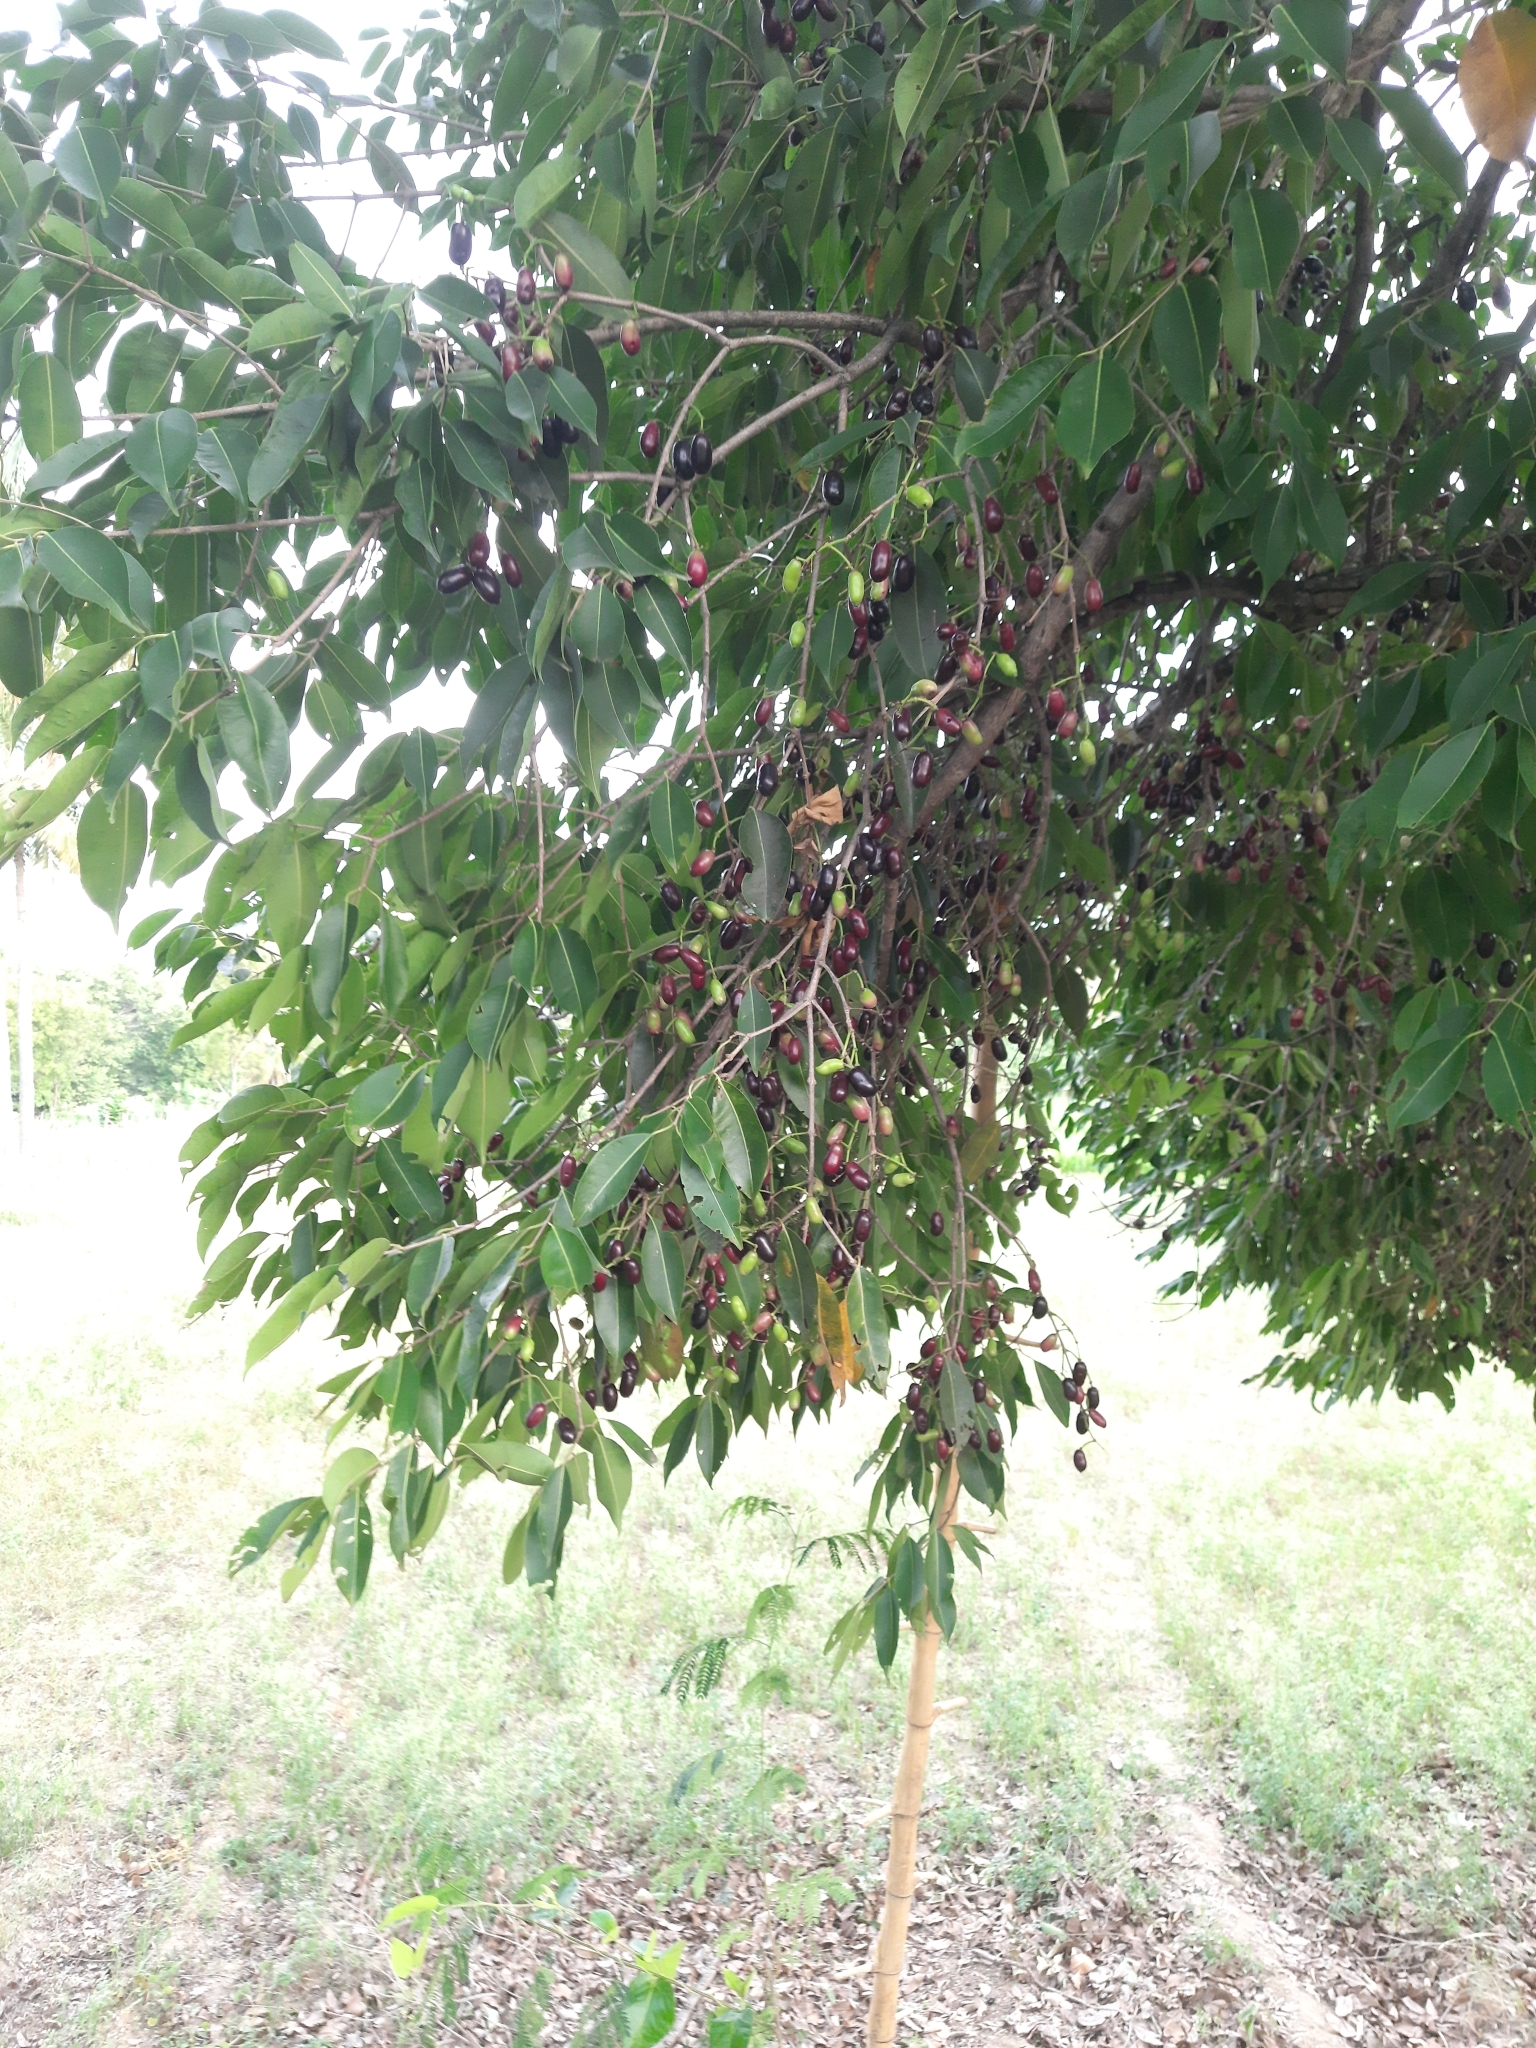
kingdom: Plantae
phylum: Tracheophyta
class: Magnoliopsida
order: Myrtales
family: Myrtaceae
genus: Syzygium
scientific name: Syzygium cumini
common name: Java plum
